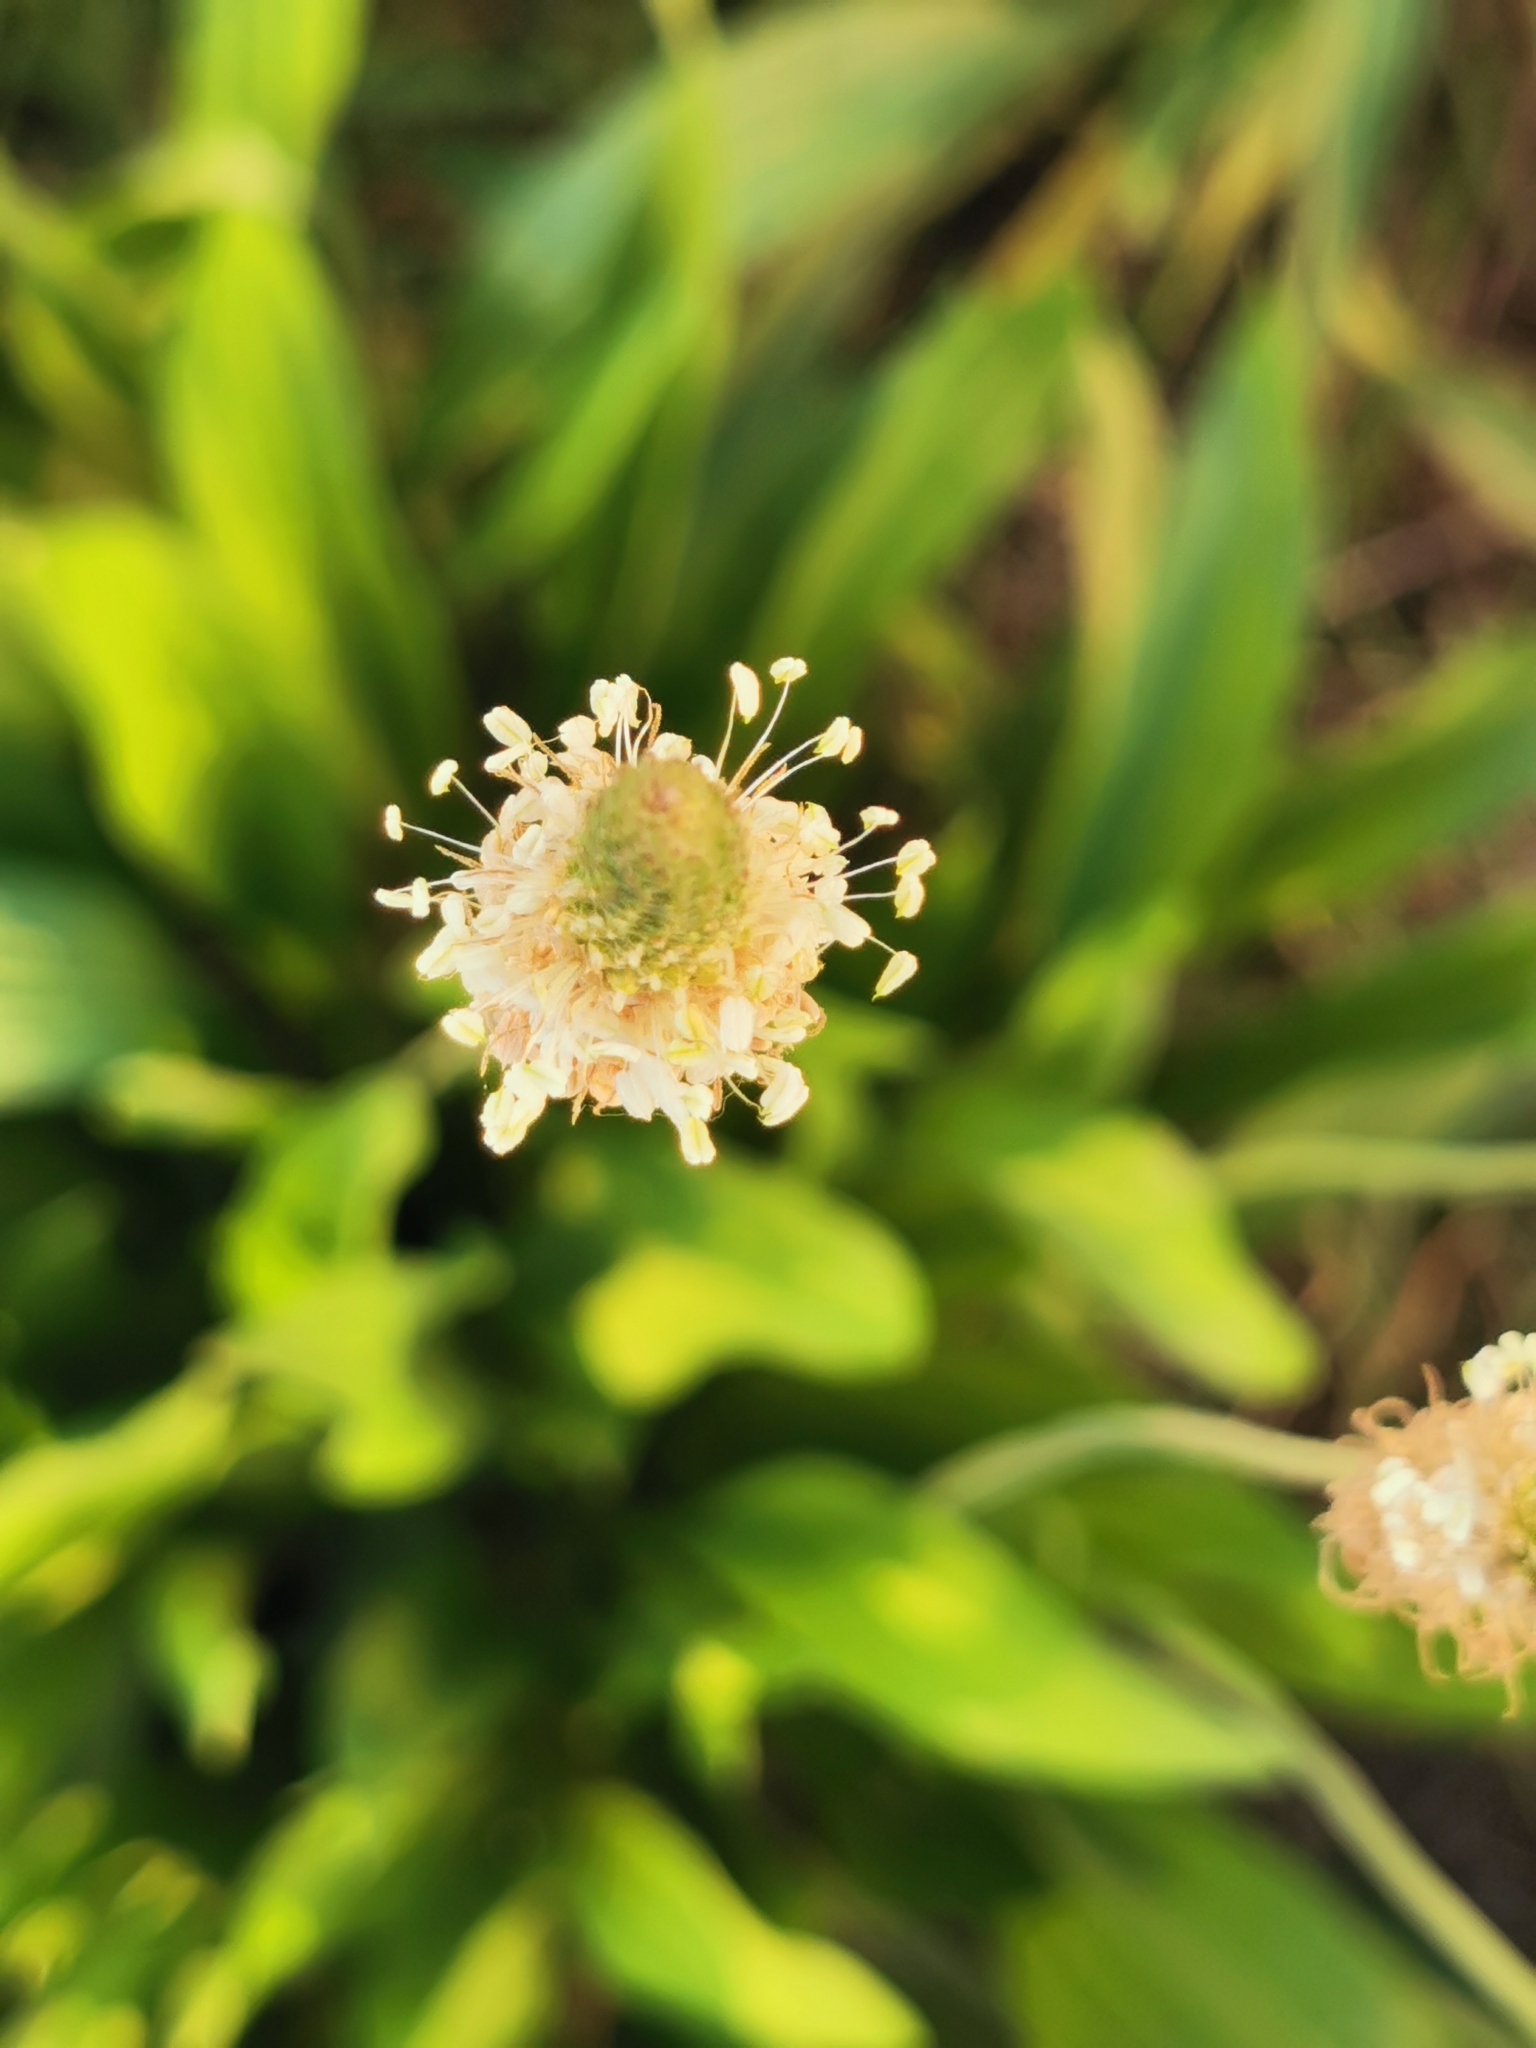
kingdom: Plantae
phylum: Tracheophyta
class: Magnoliopsida
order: Lamiales
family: Plantaginaceae
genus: Plantago
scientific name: Plantago lanceolata
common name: Ribwort plantain
